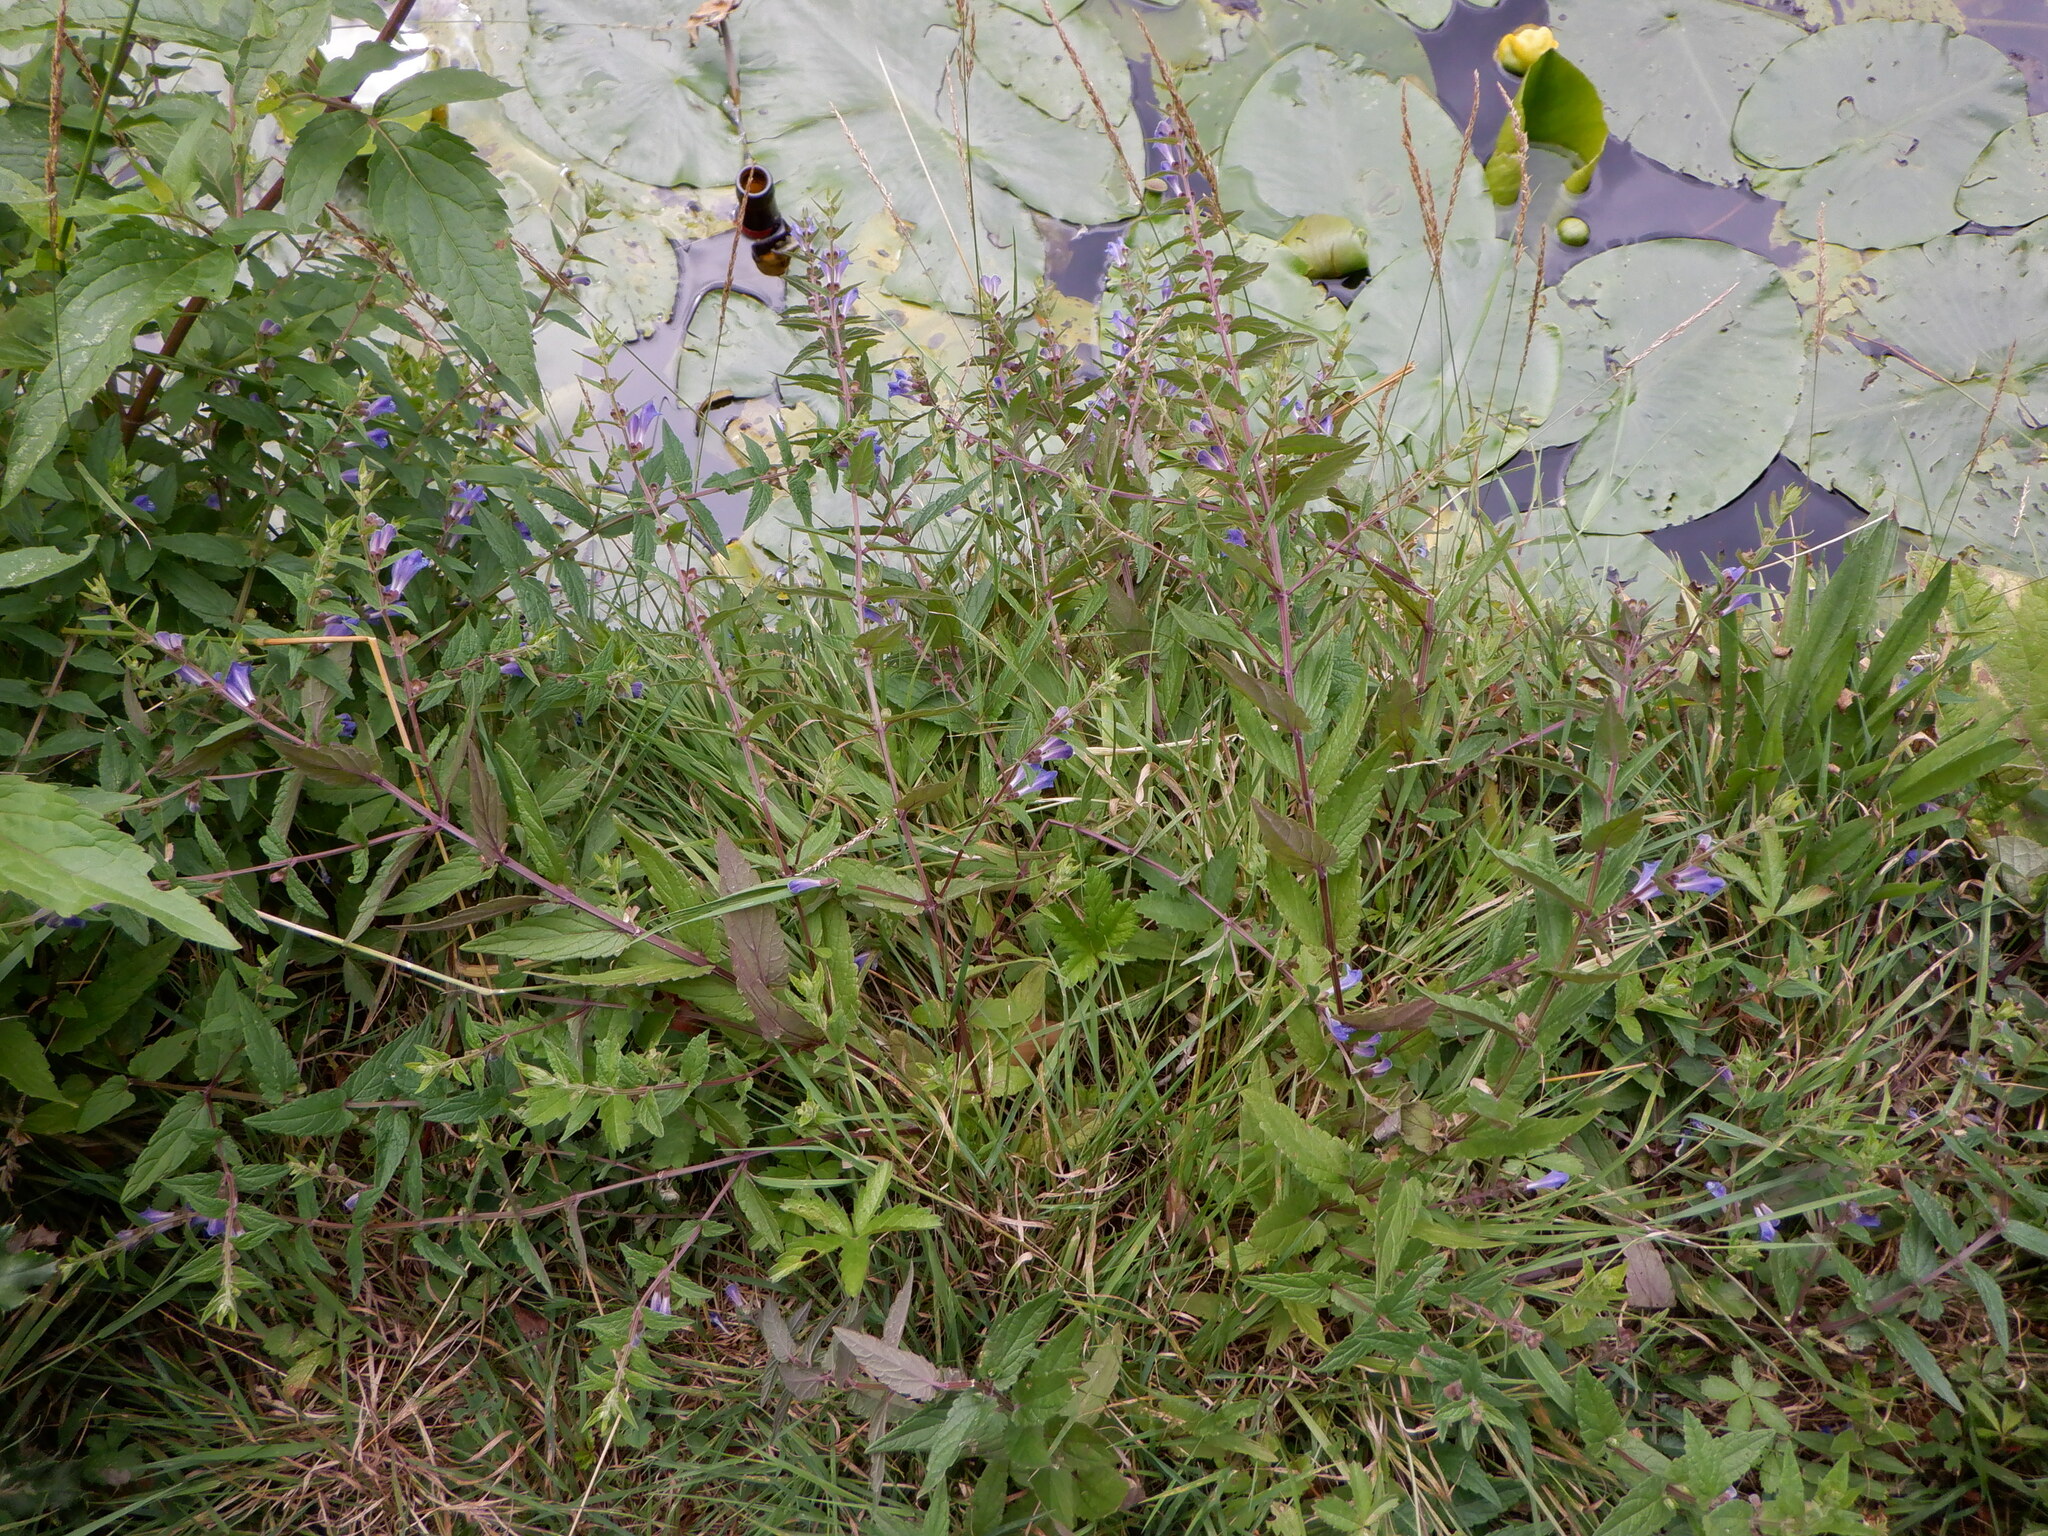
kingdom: Plantae
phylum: Tracheophyta
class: Magnoliopsida
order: Lamiales
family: Lamiaceae
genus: Scutellaria
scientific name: Scutellaria galericulata
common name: Skullcap
